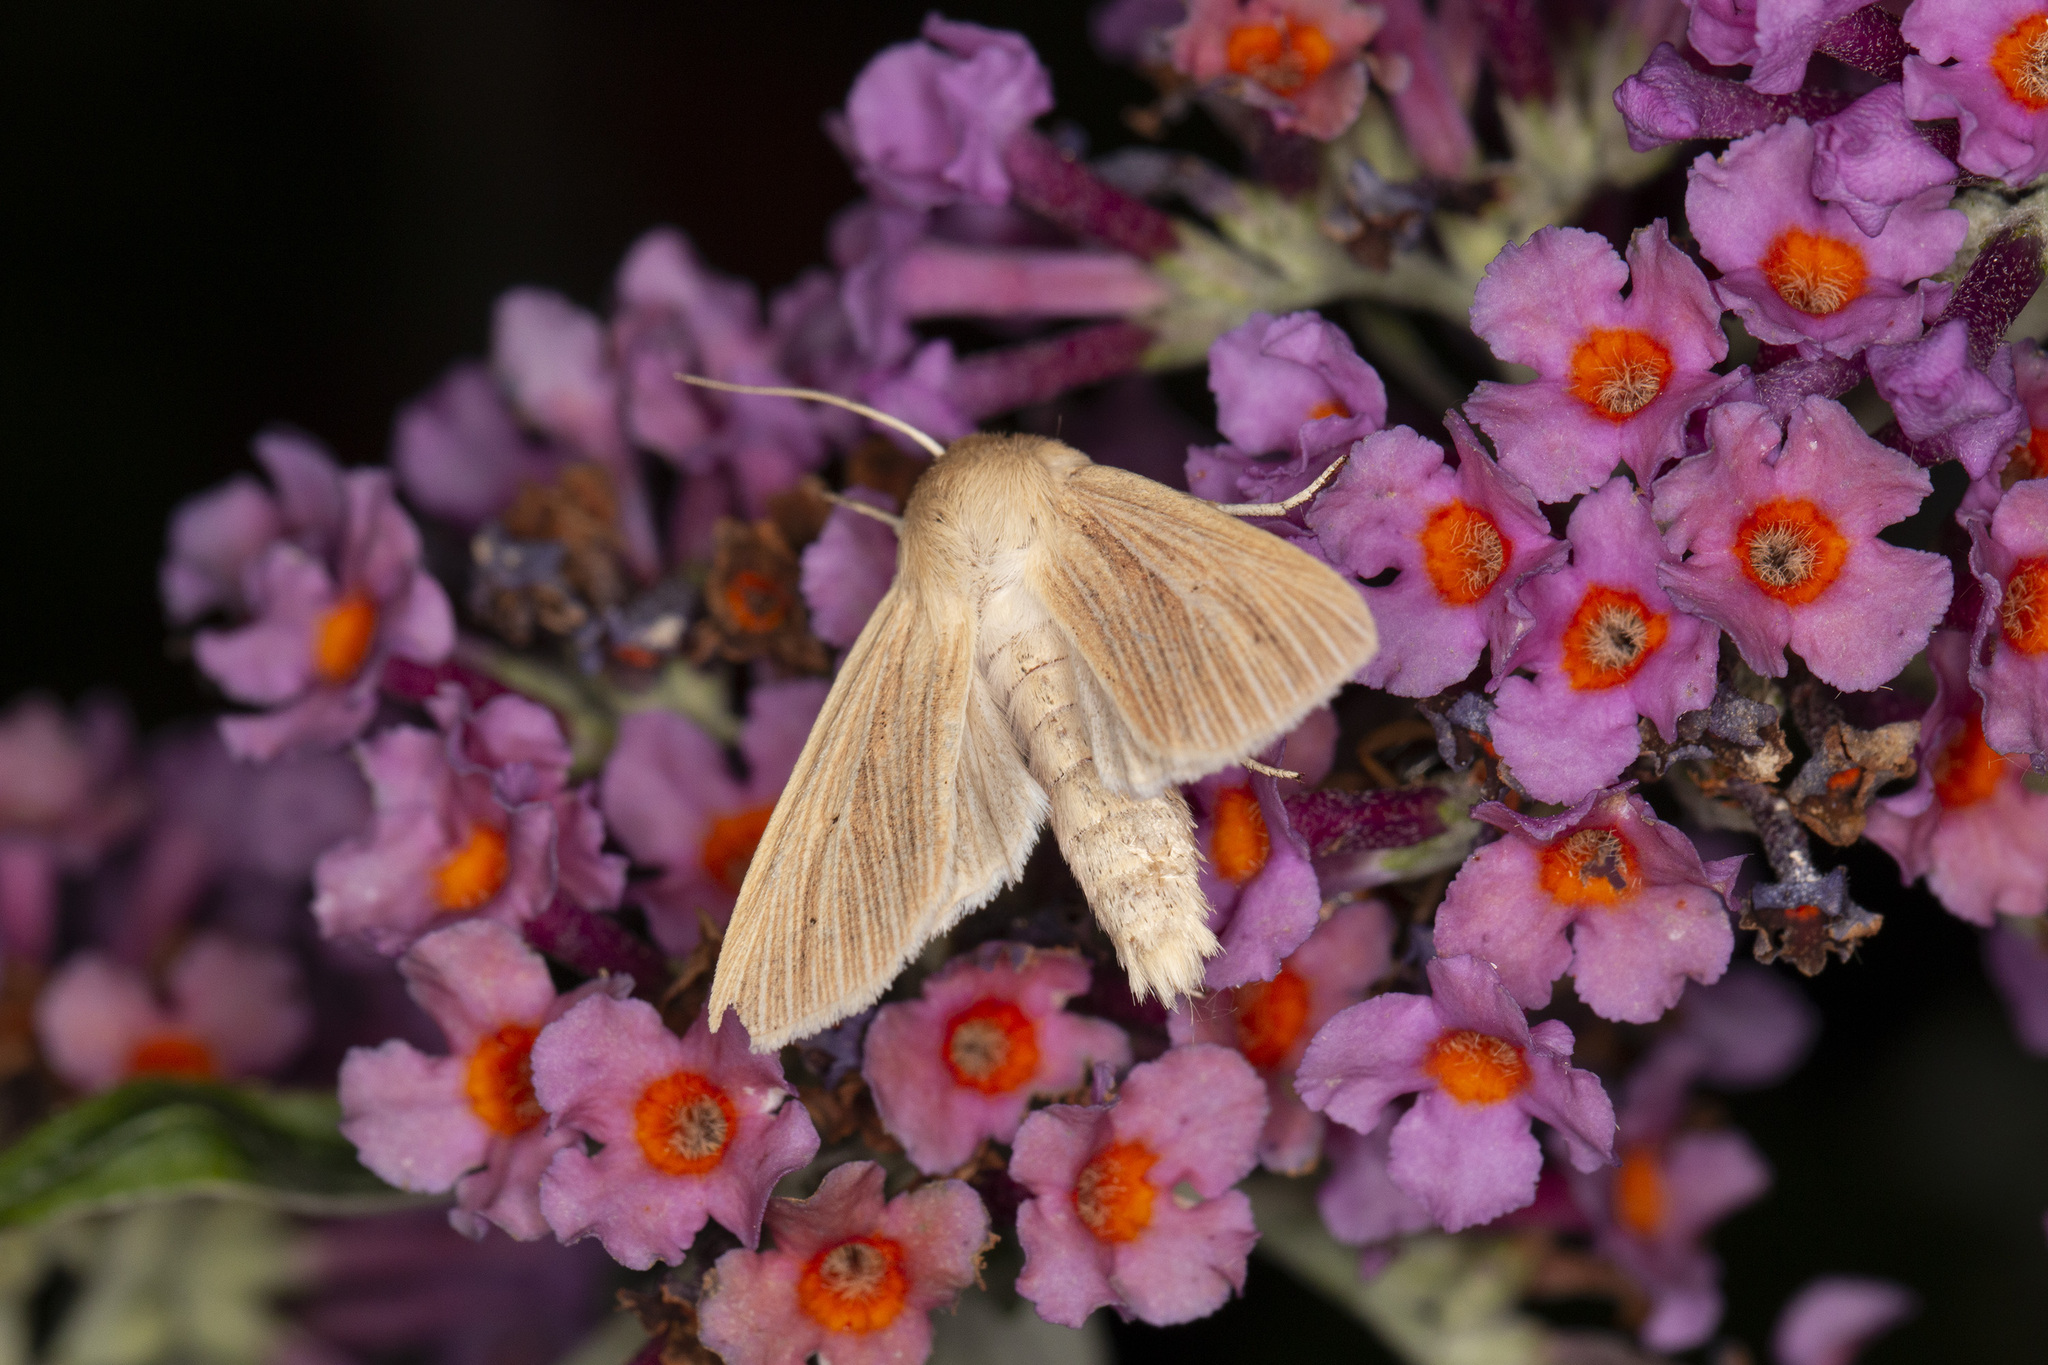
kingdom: Animalia
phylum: Arthropoda
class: Insecta
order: Lepidoptera
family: Noctuidae
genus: Mythimna
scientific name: Mythimna pallens
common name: Common wainscot
